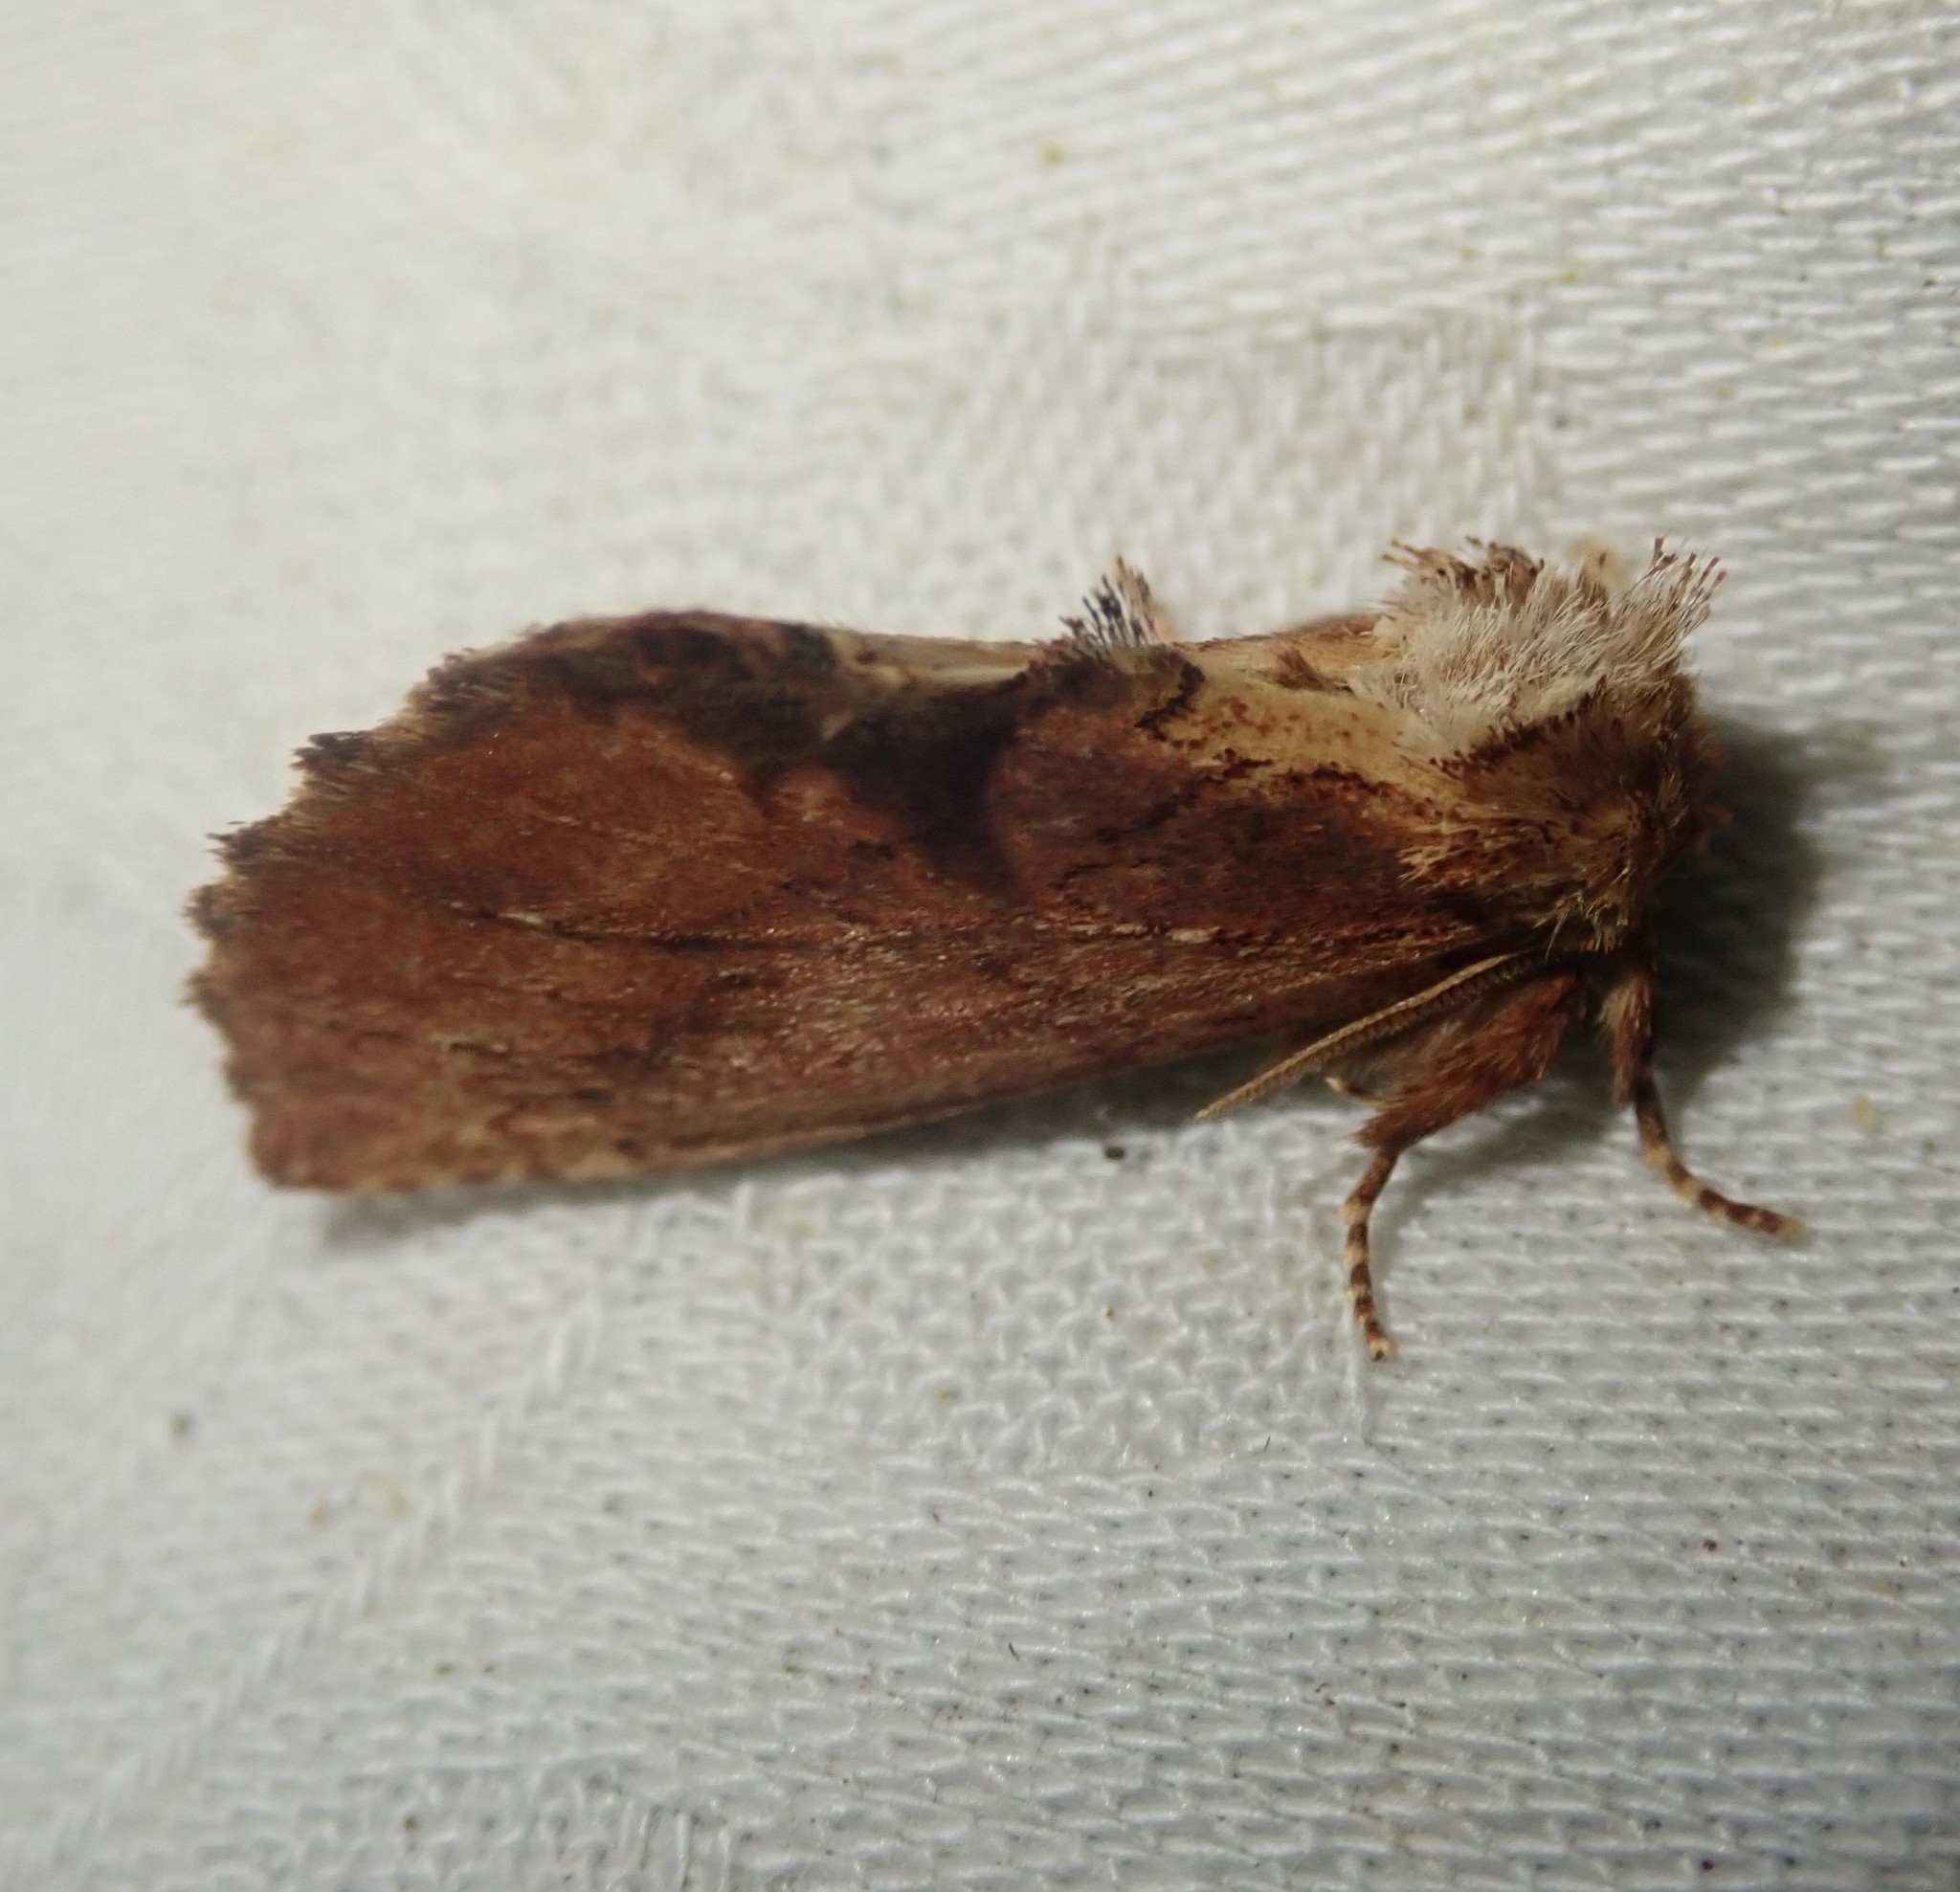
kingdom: Animalia
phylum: Arthropoda
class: Insecta
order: Lepidoptera
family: Notodontidae
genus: Ptilodon
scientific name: Ptilodon capucina
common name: Coxcomb prominent
